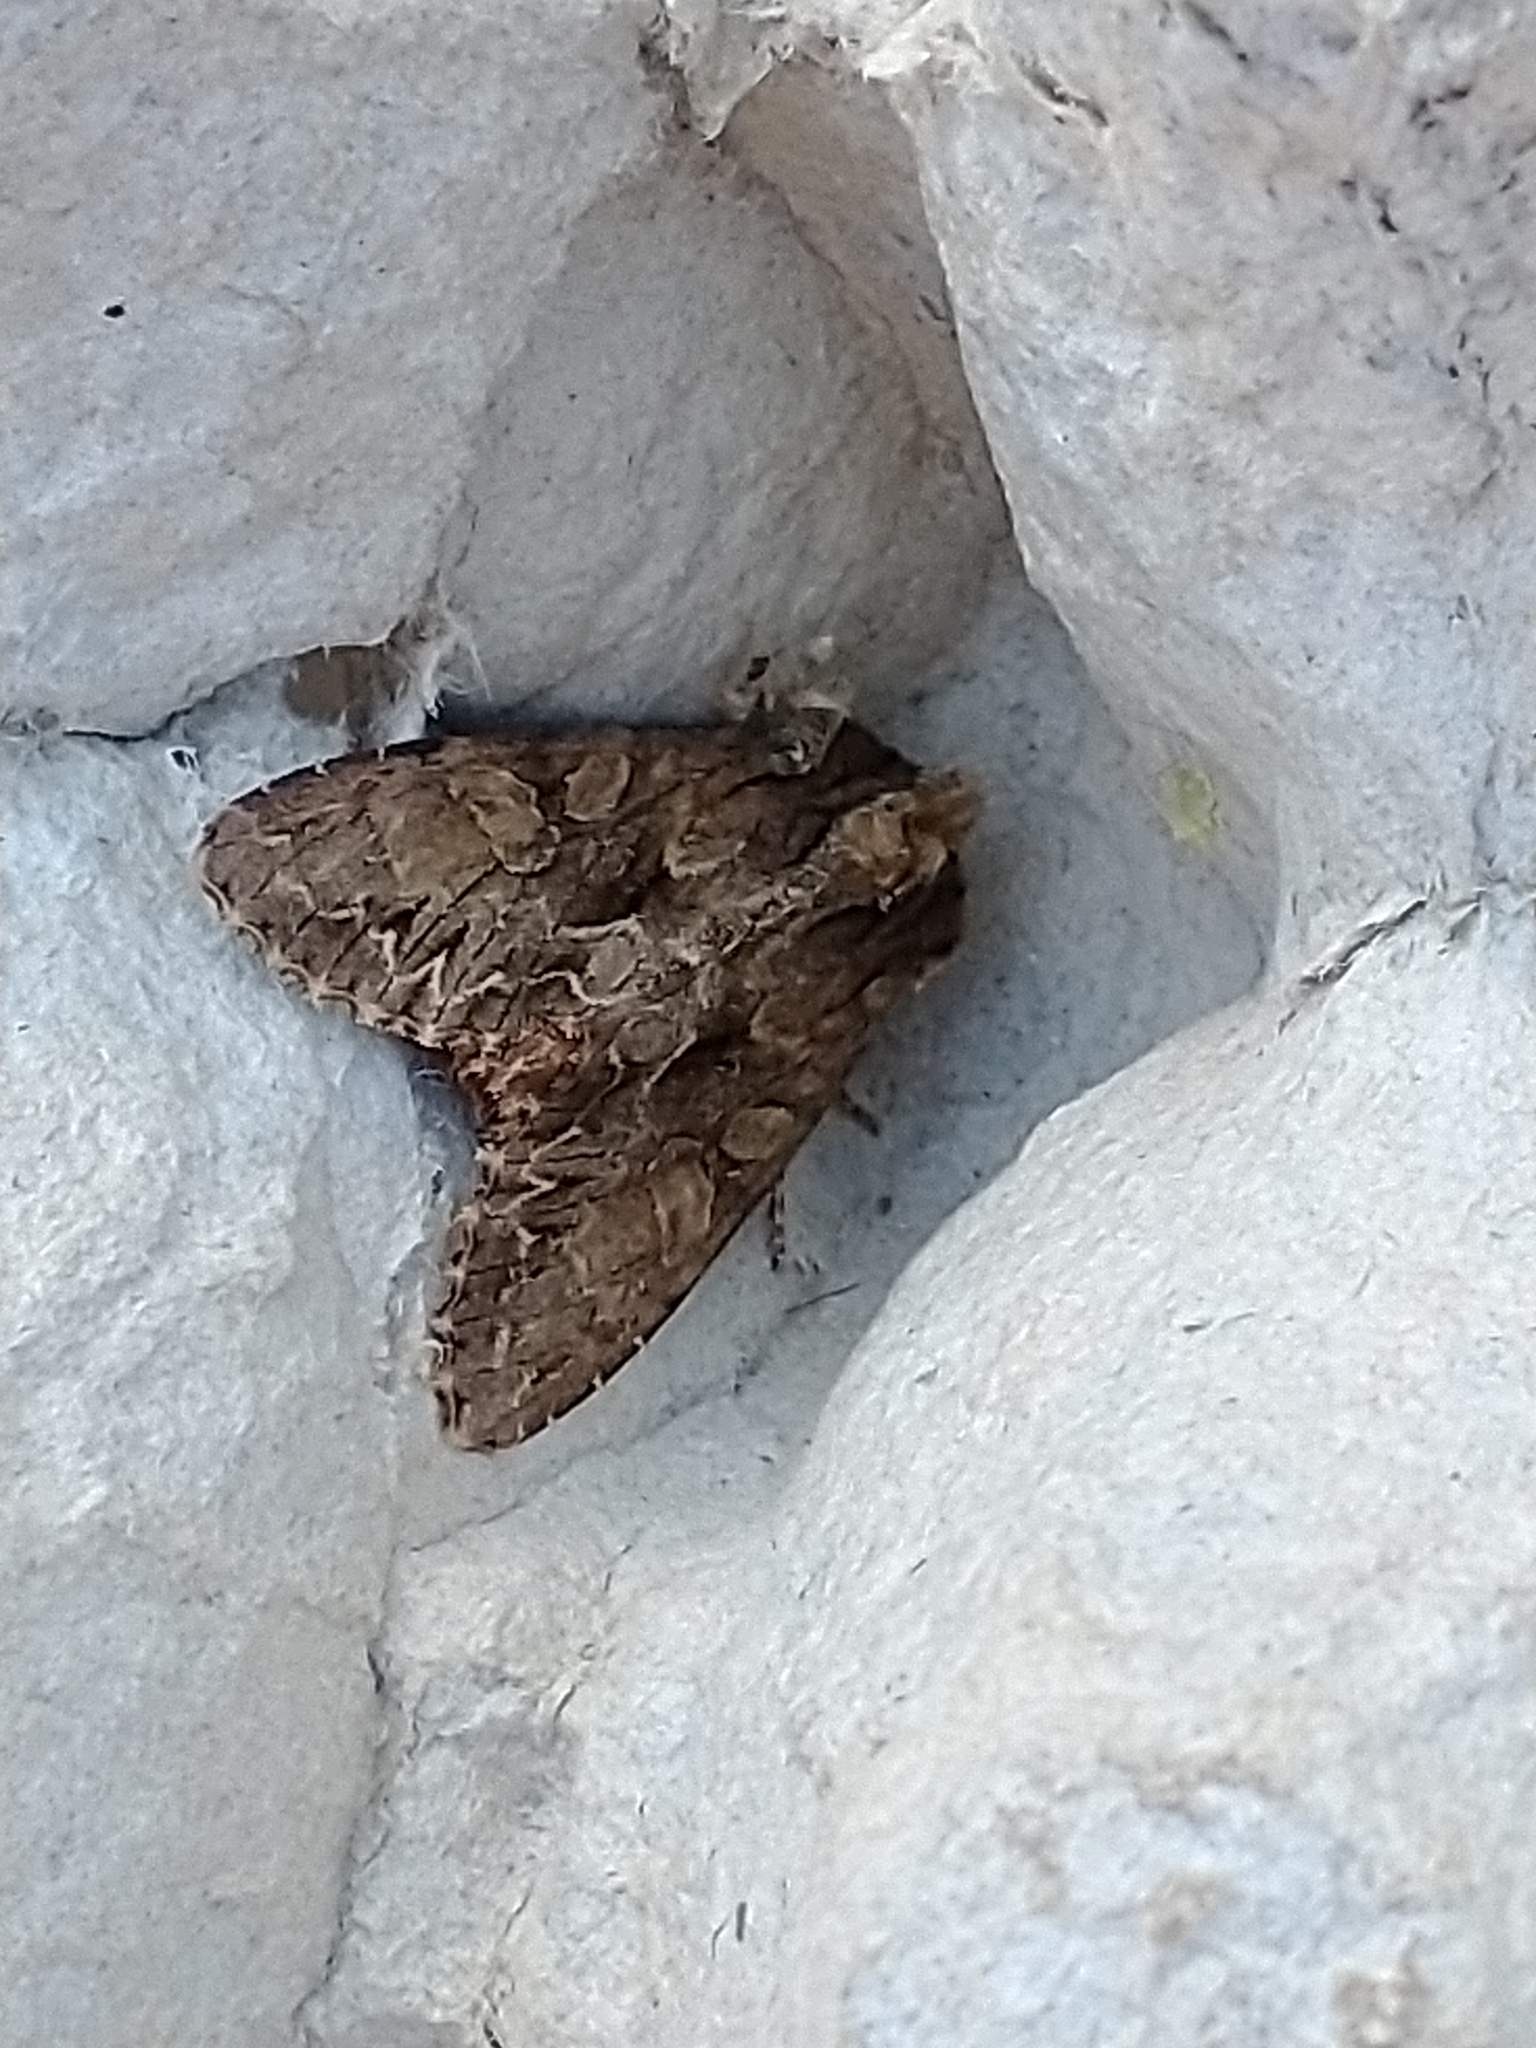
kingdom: Animalia
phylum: Arthropoda
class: Insecta
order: Lepidoptera
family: Noctuidae
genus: Apamea
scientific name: Apamea monoglypha
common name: Dark arches
